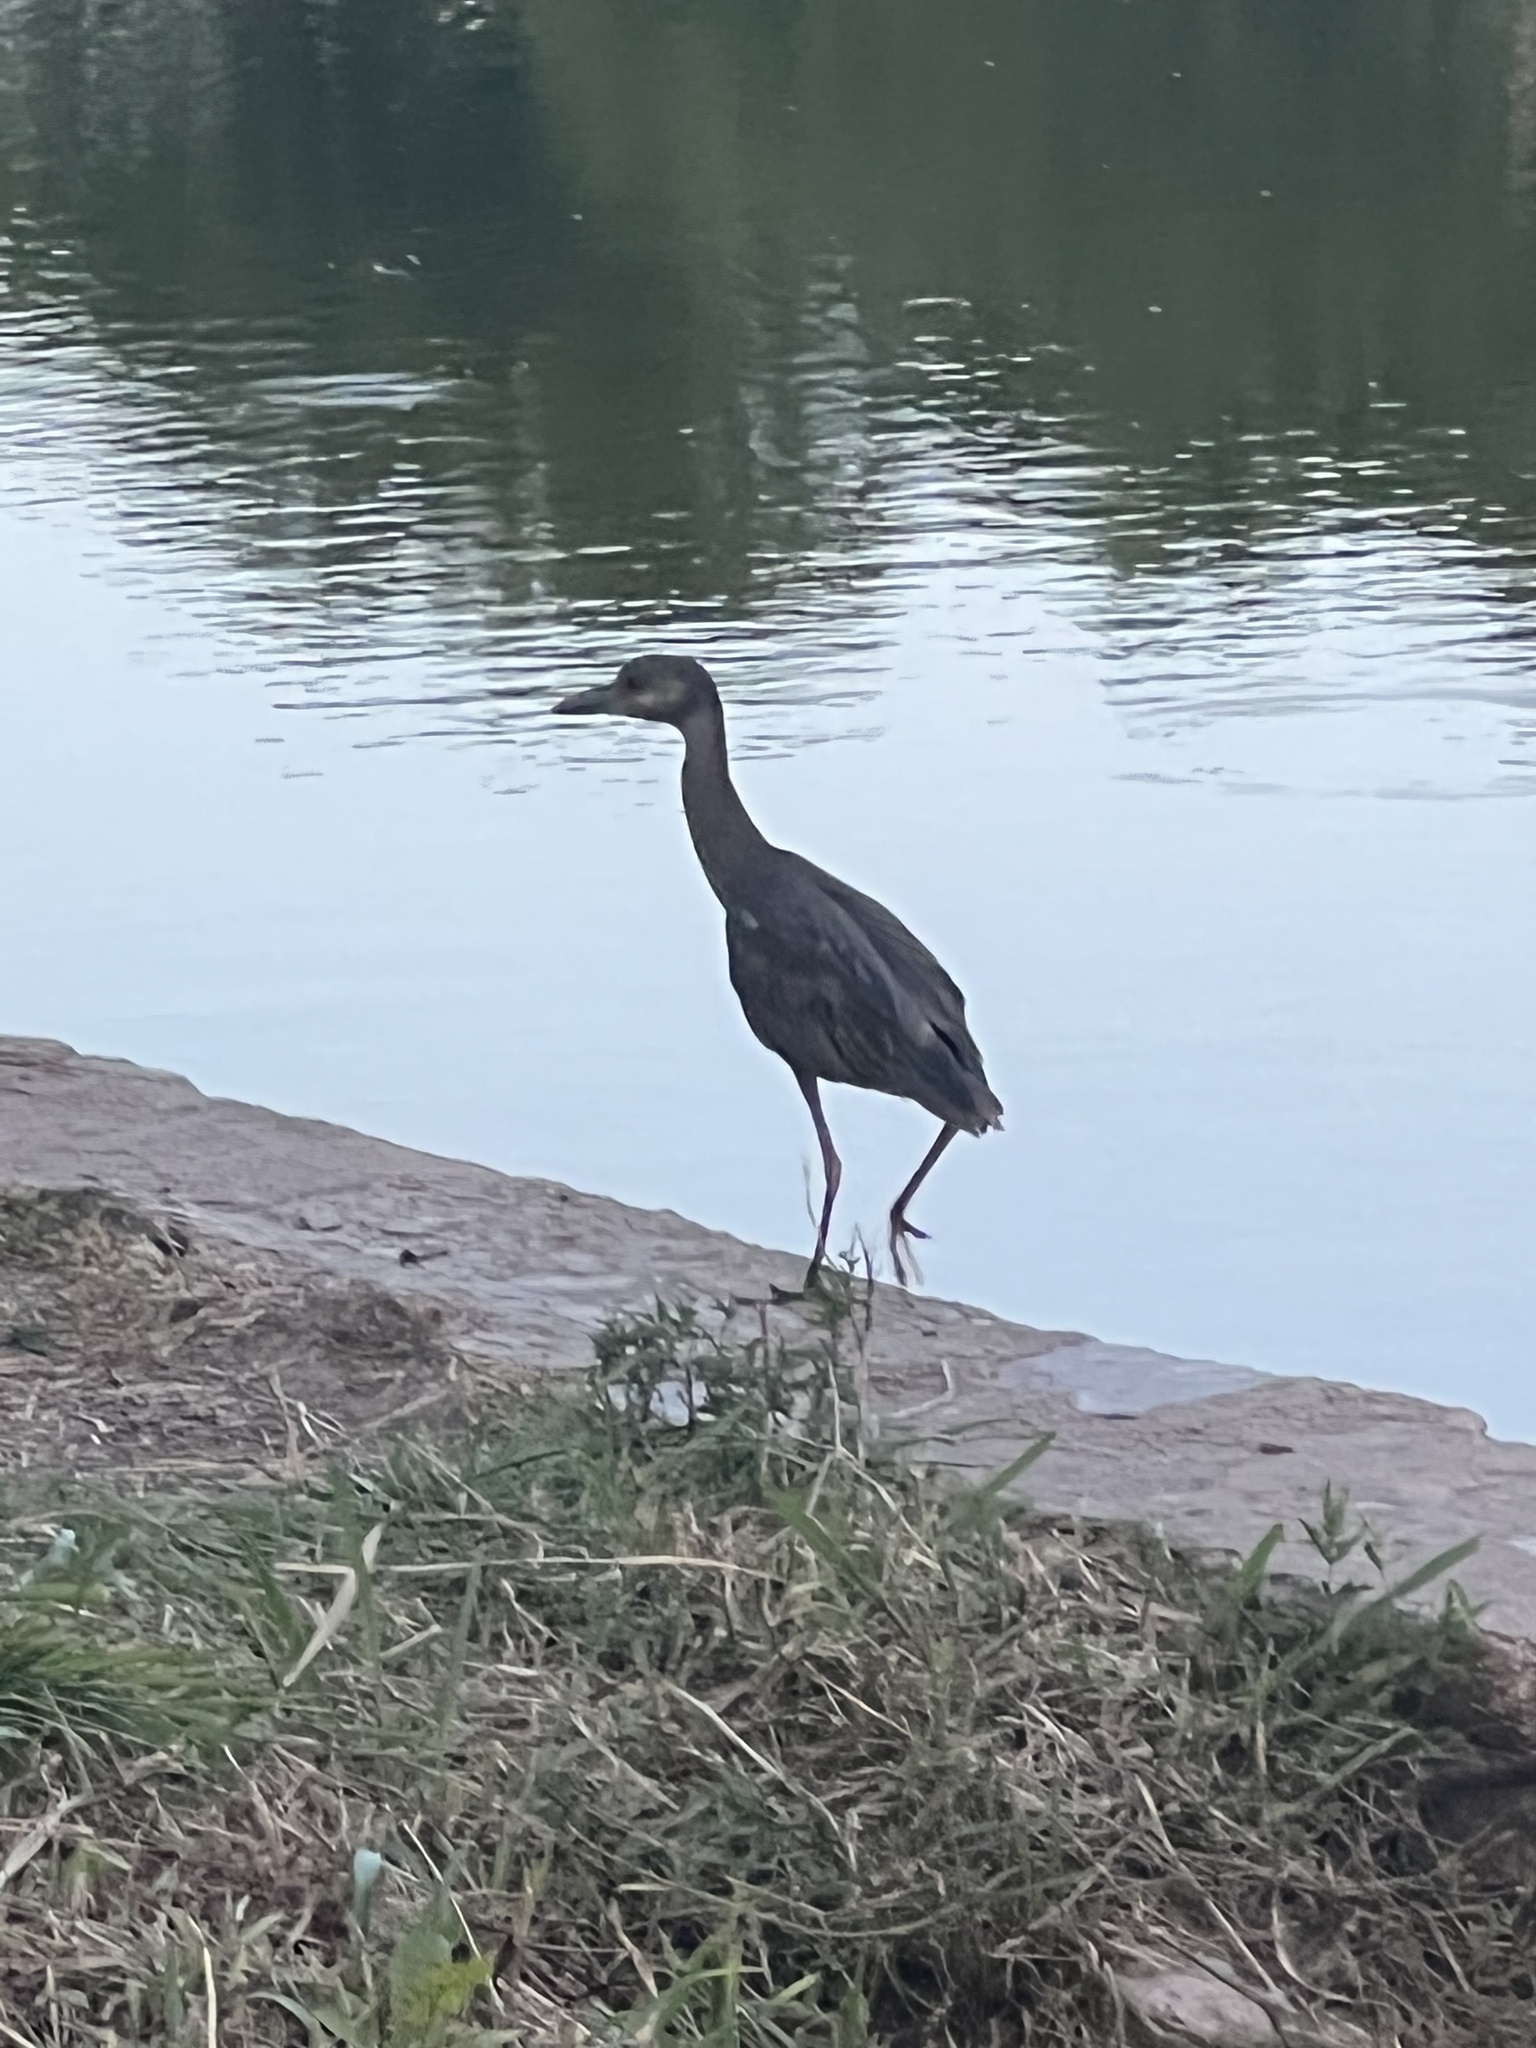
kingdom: Animalia
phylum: Chordata
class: Aves
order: Pelecaniformes
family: Ardeidae
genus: Nyctanassa
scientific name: Nyctanassa violacea
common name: Yellow-crowned night heron
